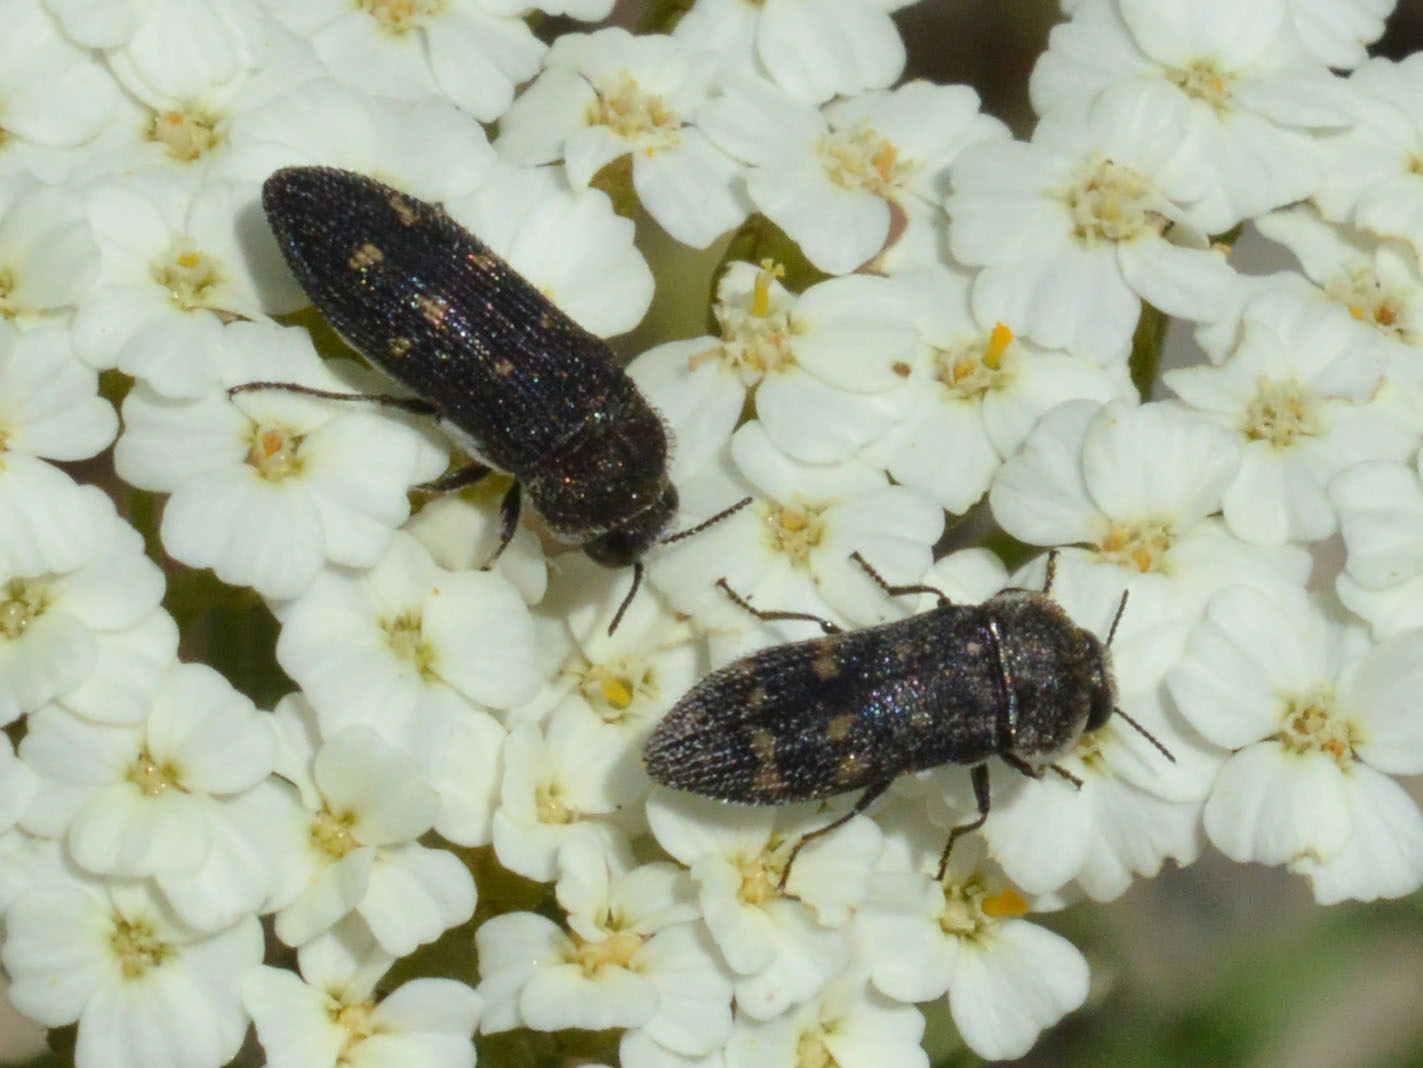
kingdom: Animalia
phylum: Arthropoda
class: Insecta
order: Coleoptera
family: Buprestidae
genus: Acmaeoderella
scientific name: Acmaeoderella flavofasciata
